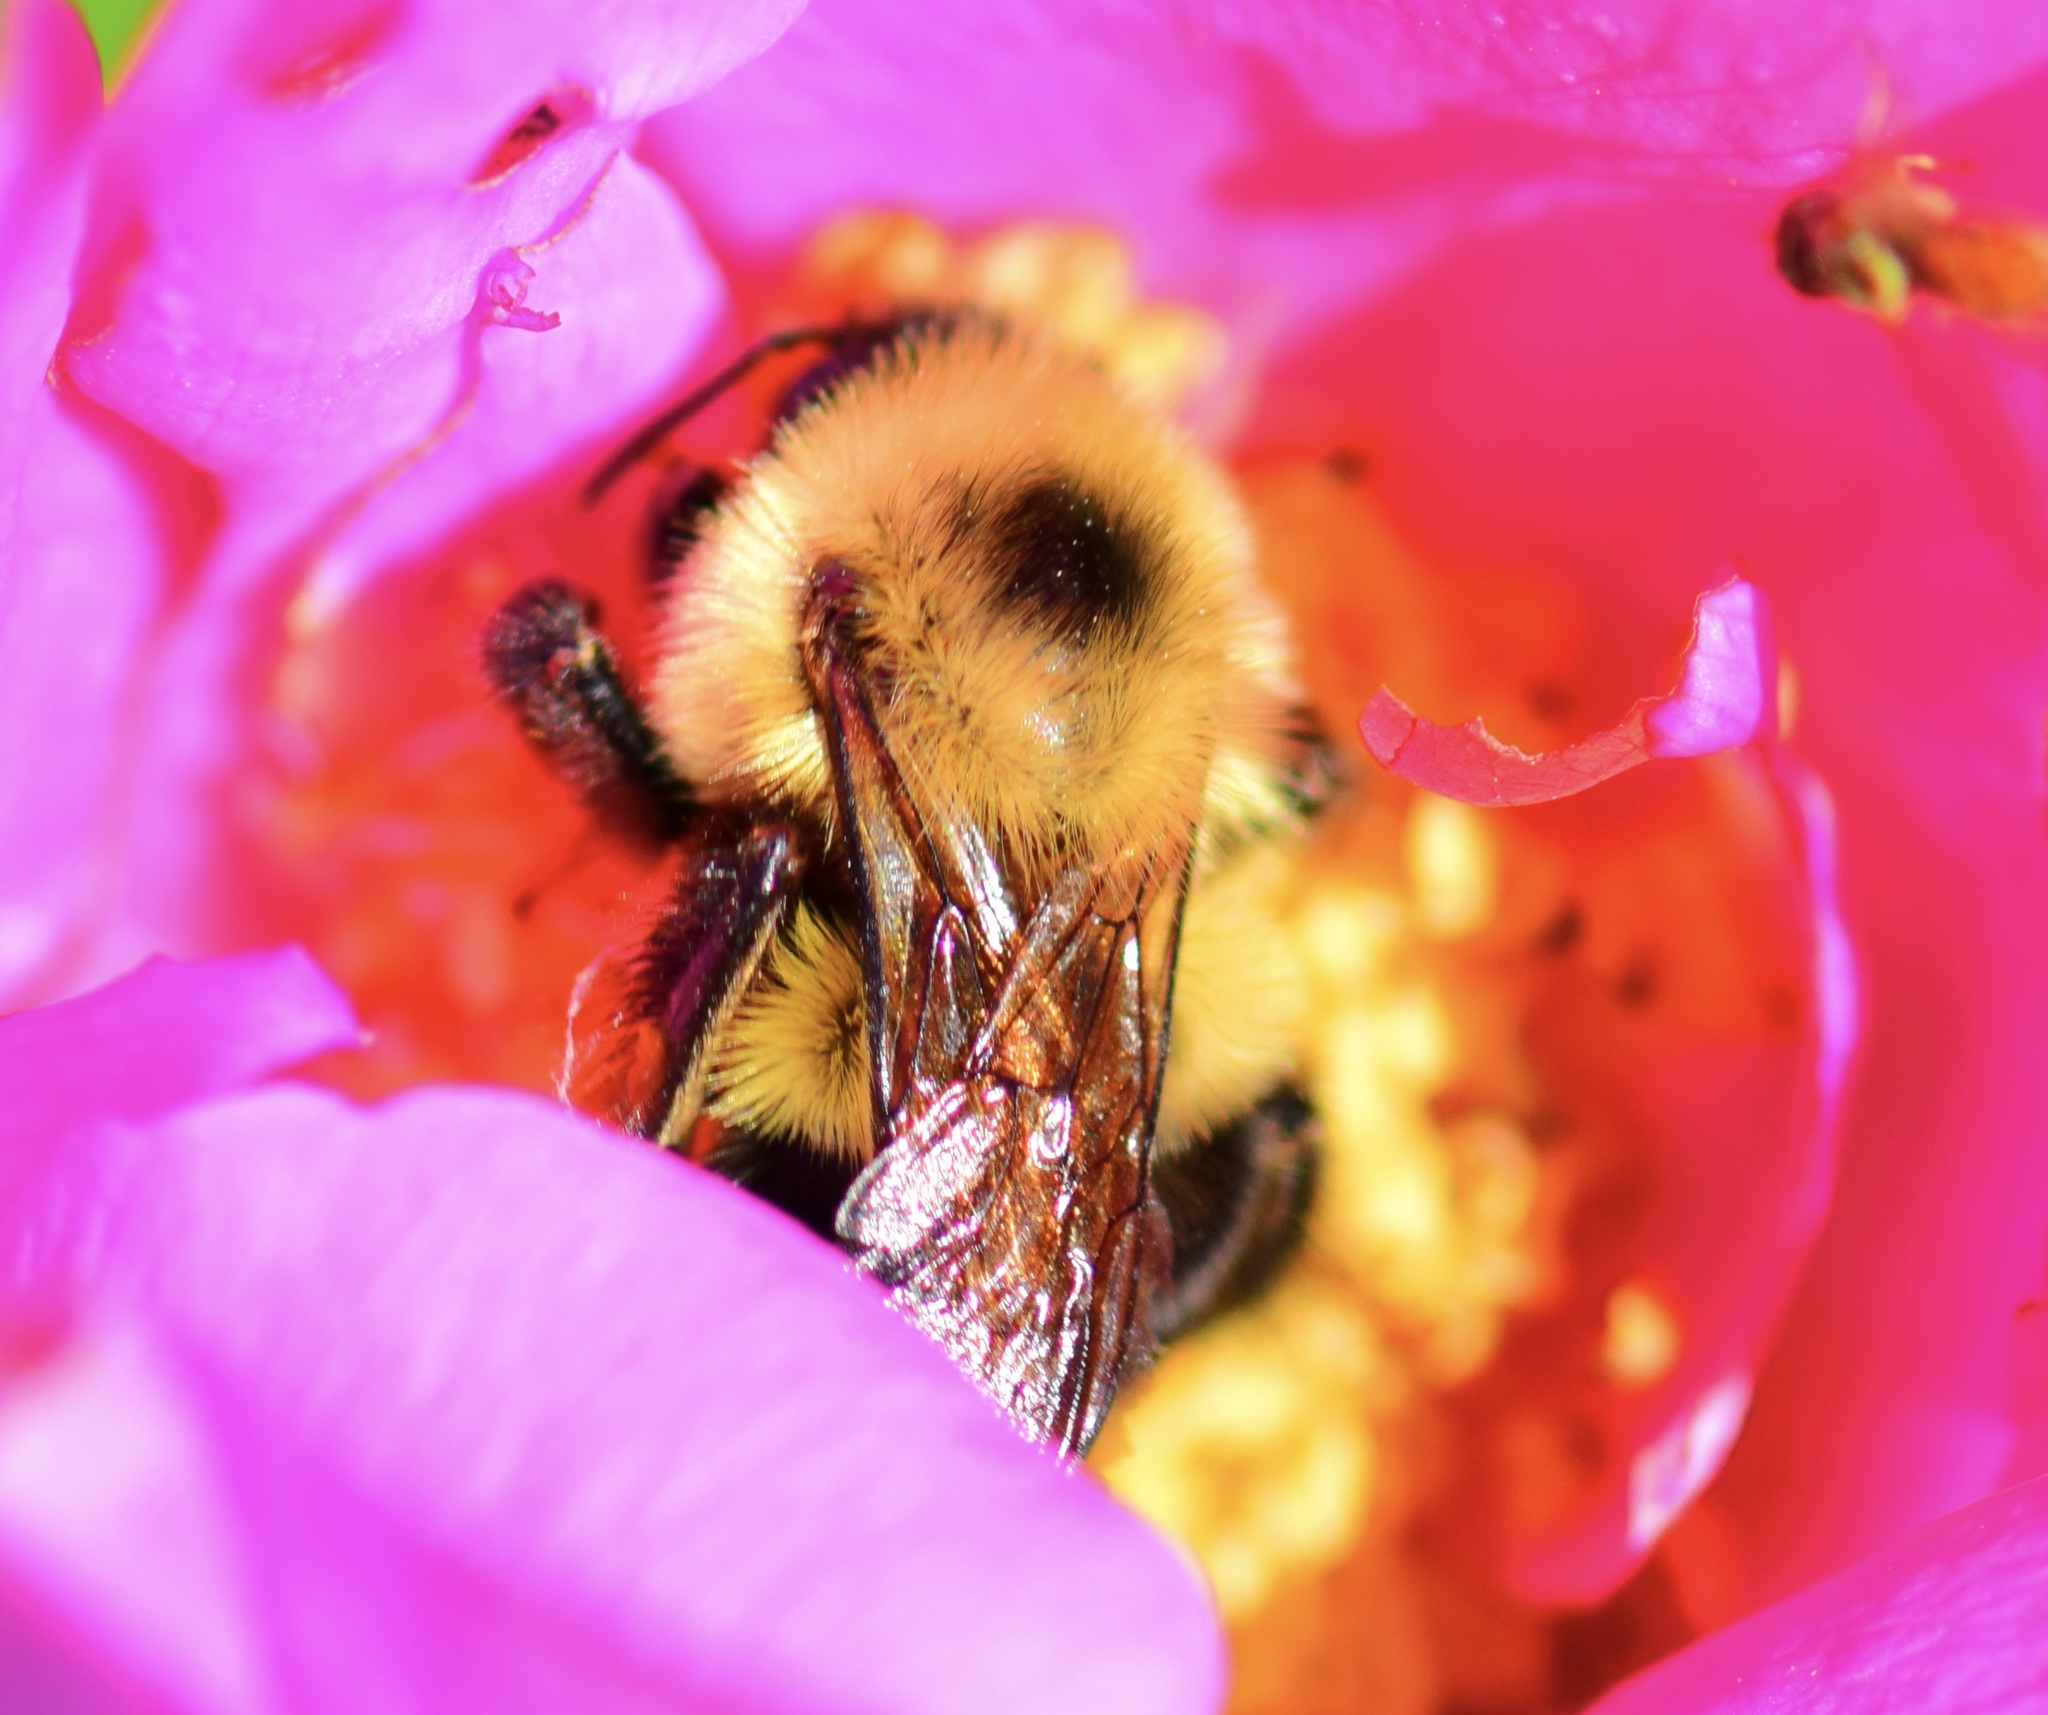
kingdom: Animalia
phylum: Arthropoda
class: Insecta
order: Hymenoptera
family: Apidae
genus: Bombus
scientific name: Bombus bimaculatus
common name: Two-spotted bumble bee
